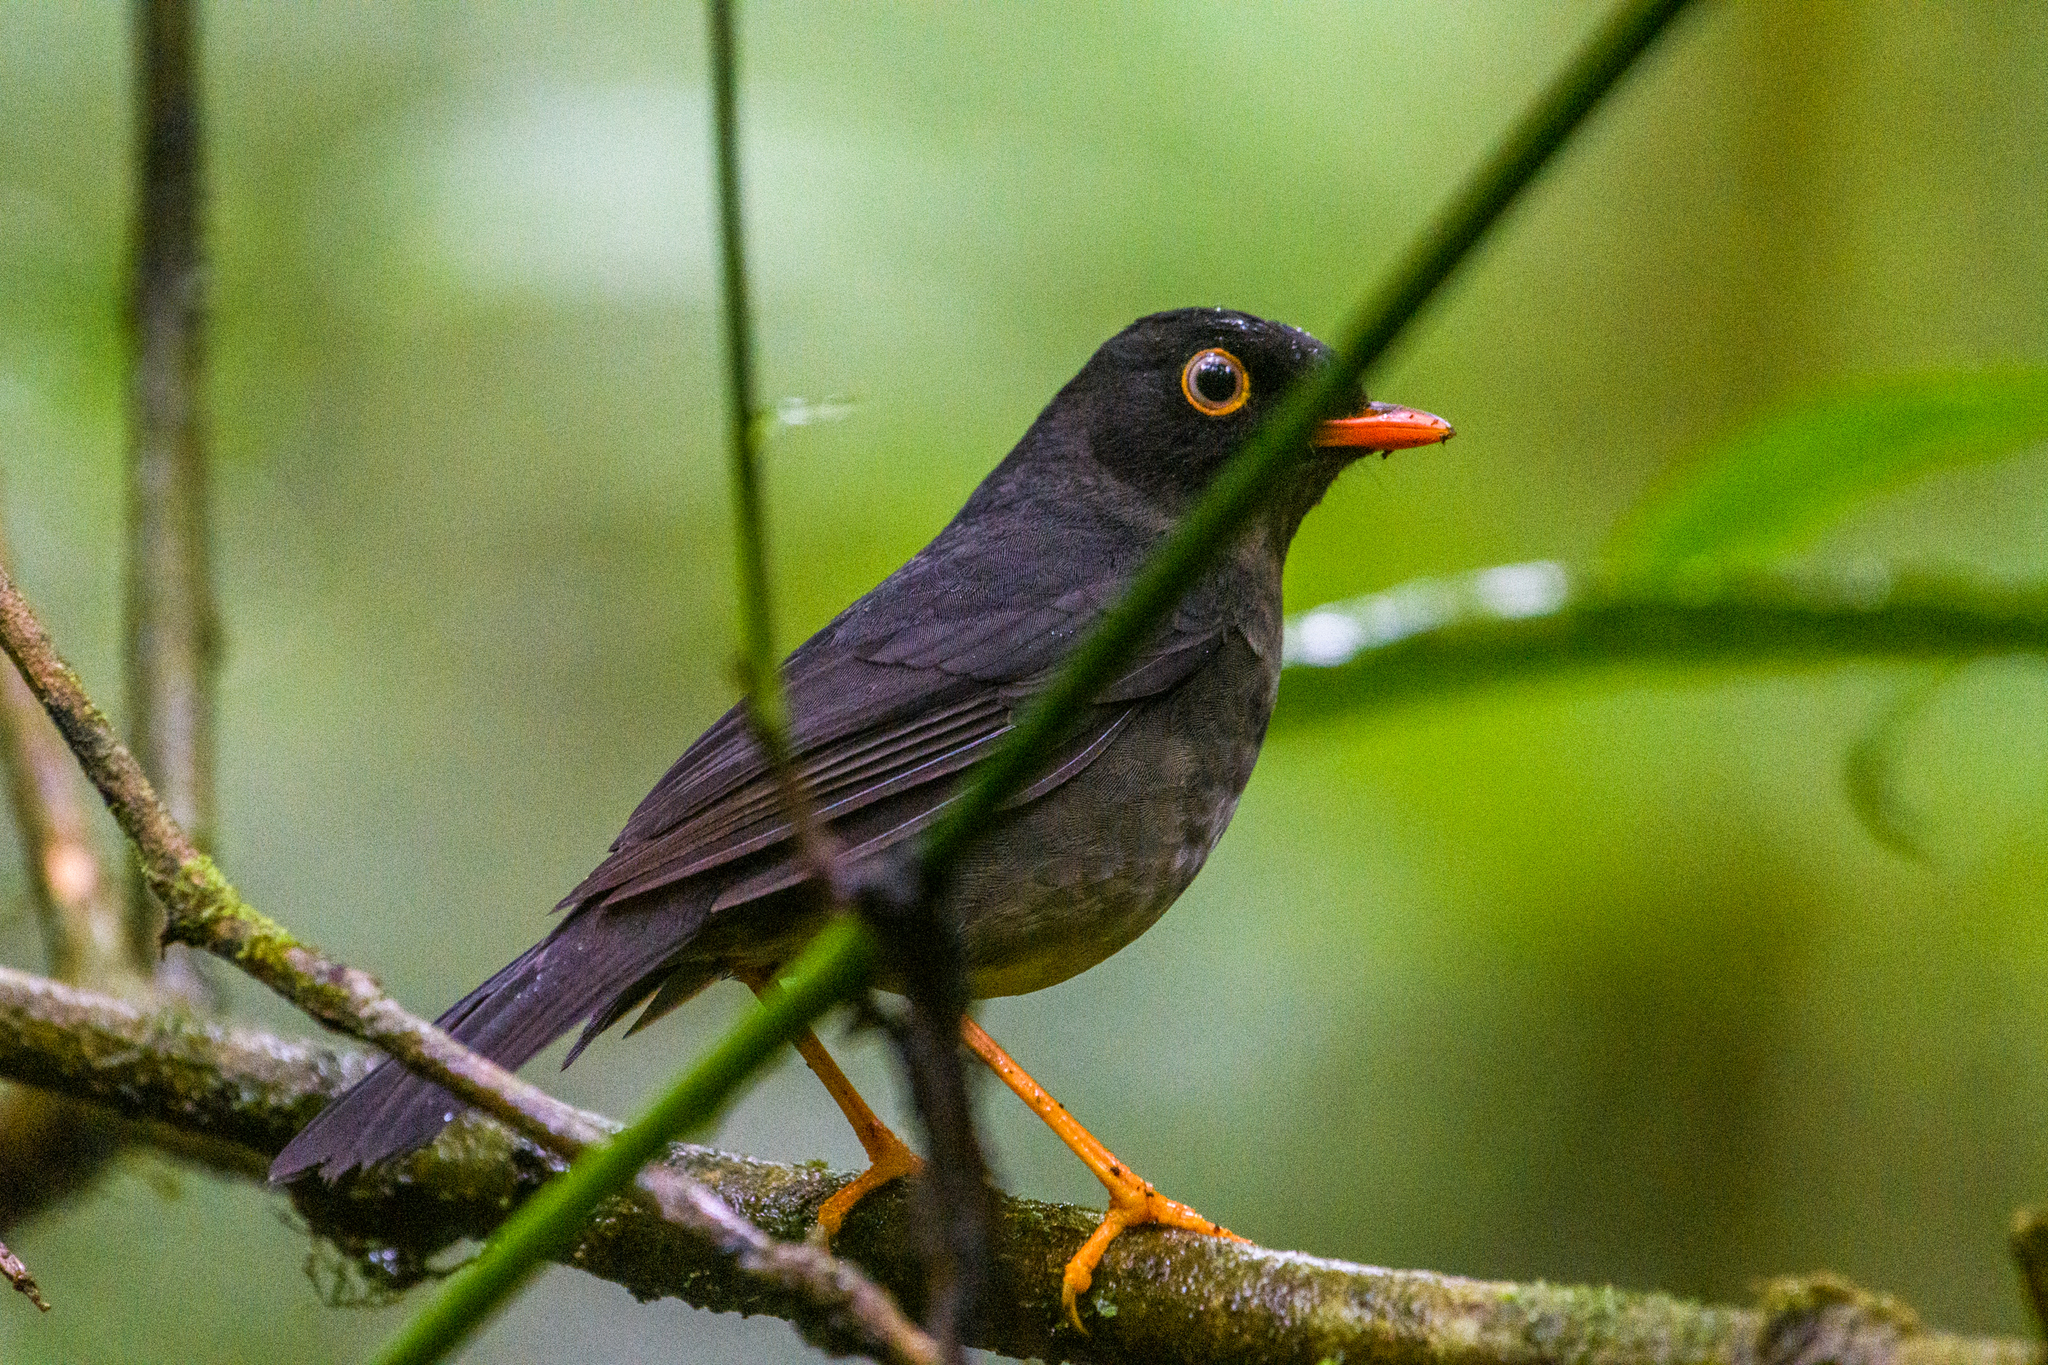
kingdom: Animalia
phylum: Chordata
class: Aves
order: Passeriformes
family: Turdidae
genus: Catharus
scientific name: Catharus fuscater
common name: Slaty-backed nightingale-thrush
